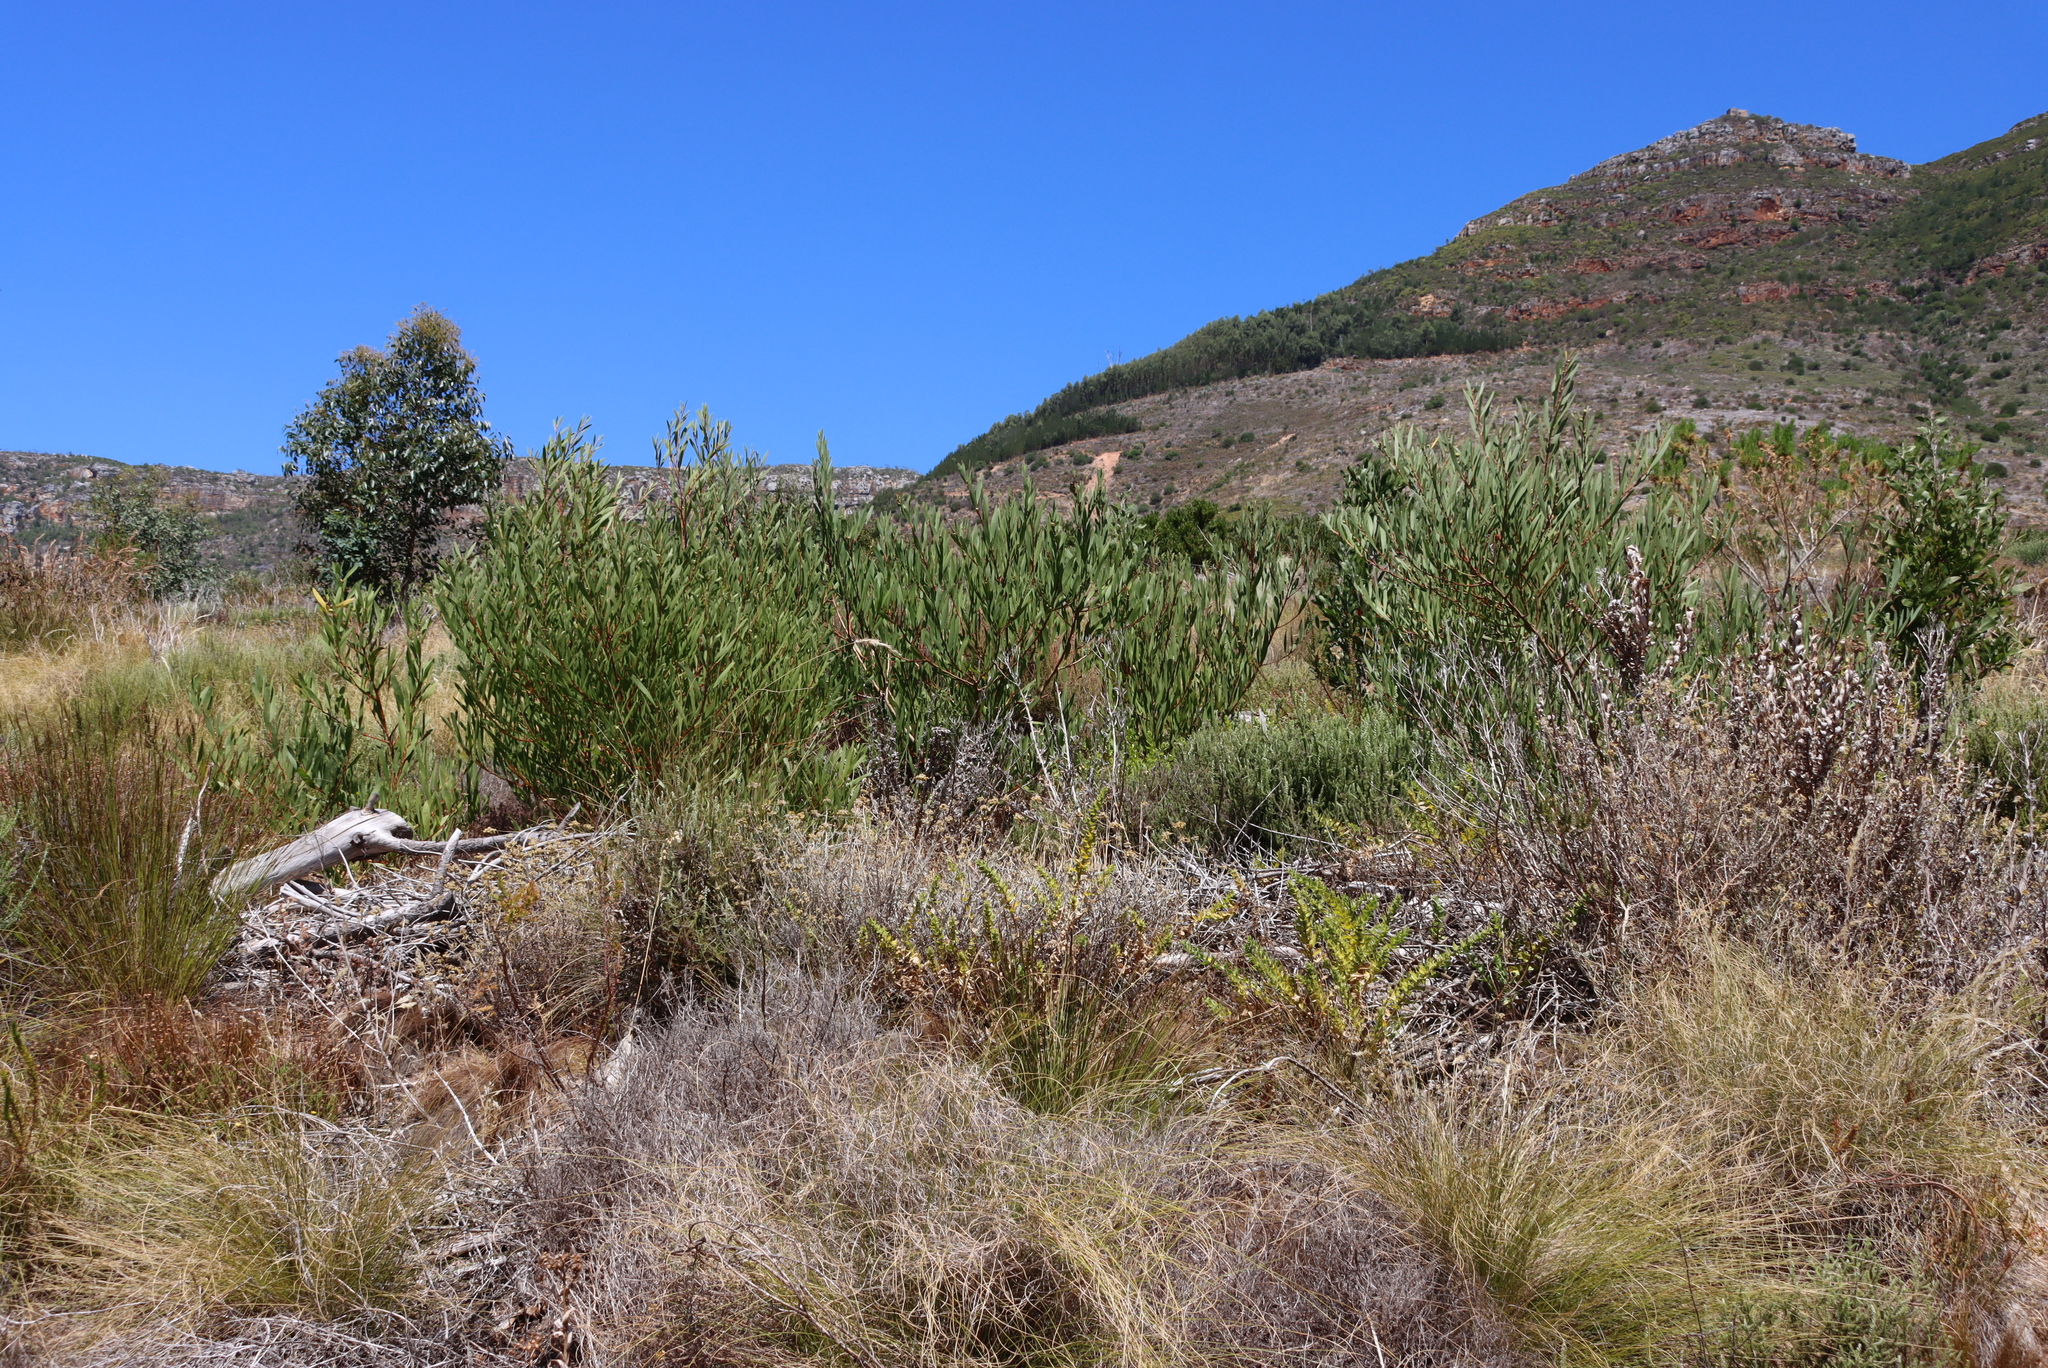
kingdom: Plantae
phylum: Tracheophyta
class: Magnoliopsida
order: Fabales
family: Fabaceae
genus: Acacia
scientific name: Acacia longifolia
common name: Sydney golden wattle
